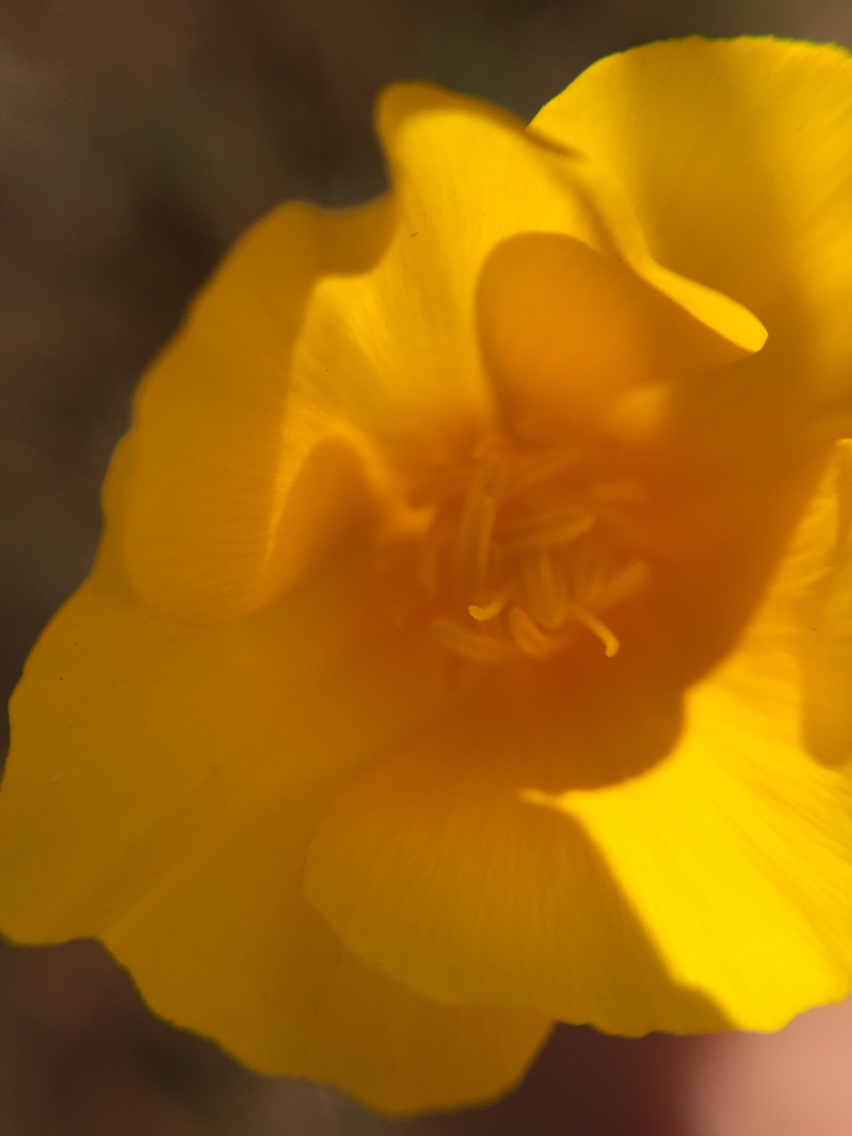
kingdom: Plantae
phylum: Tracheophyta
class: Magnoliopsida
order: Ranunculales
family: Papaveraceae
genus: Eschscholzia
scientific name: Eschscholzia californica
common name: California poppy
